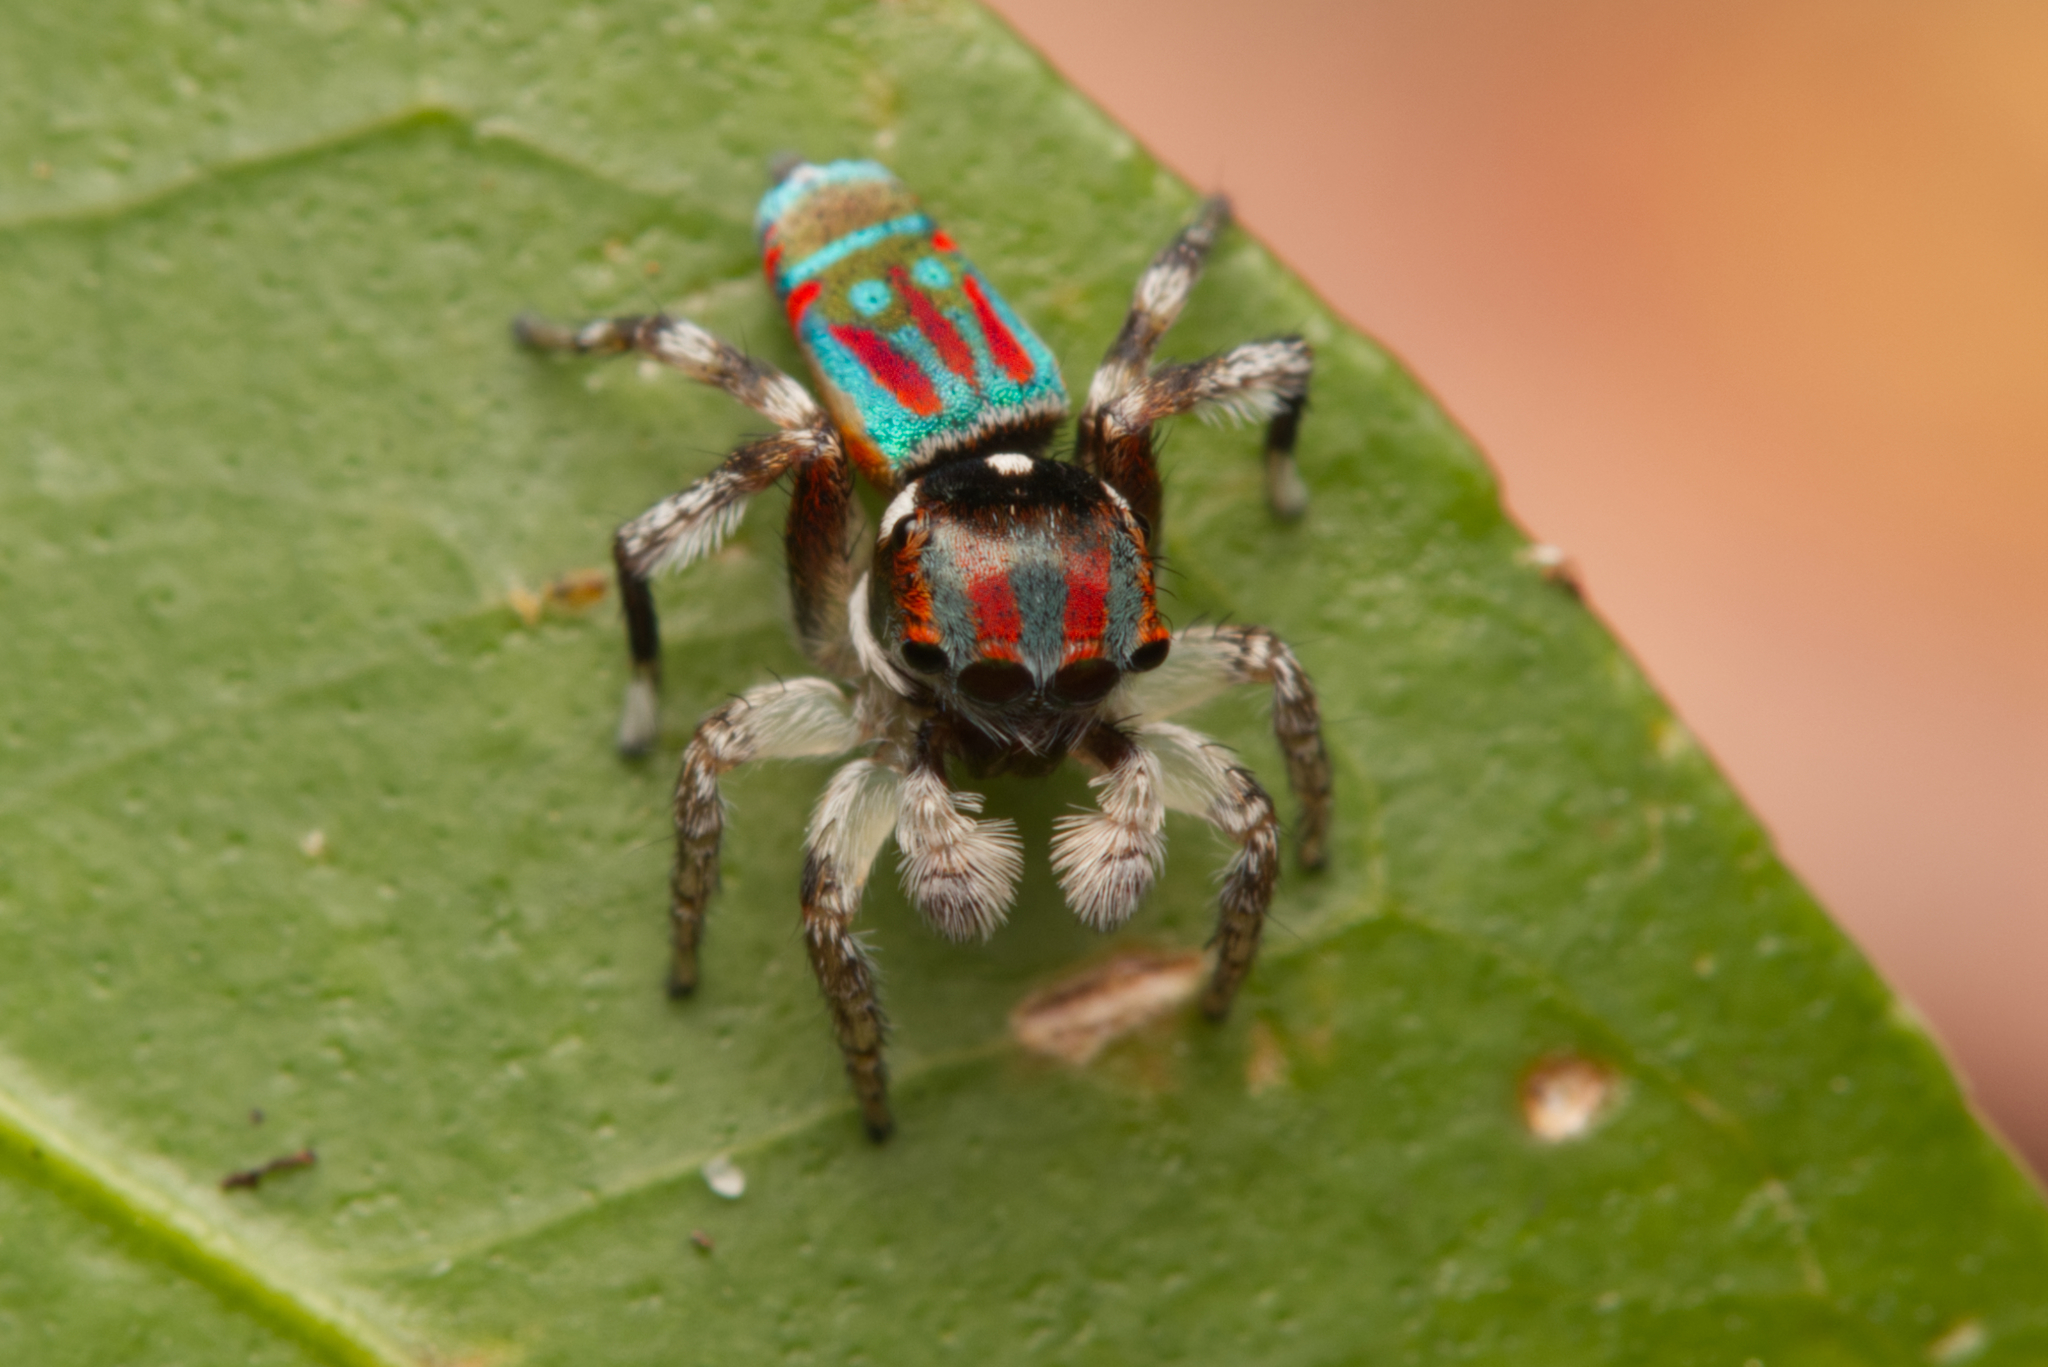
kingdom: Animalia
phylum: Arthropoda
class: Arachnida
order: Araneae
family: Salticidae
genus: Maratus
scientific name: Maratus volans
